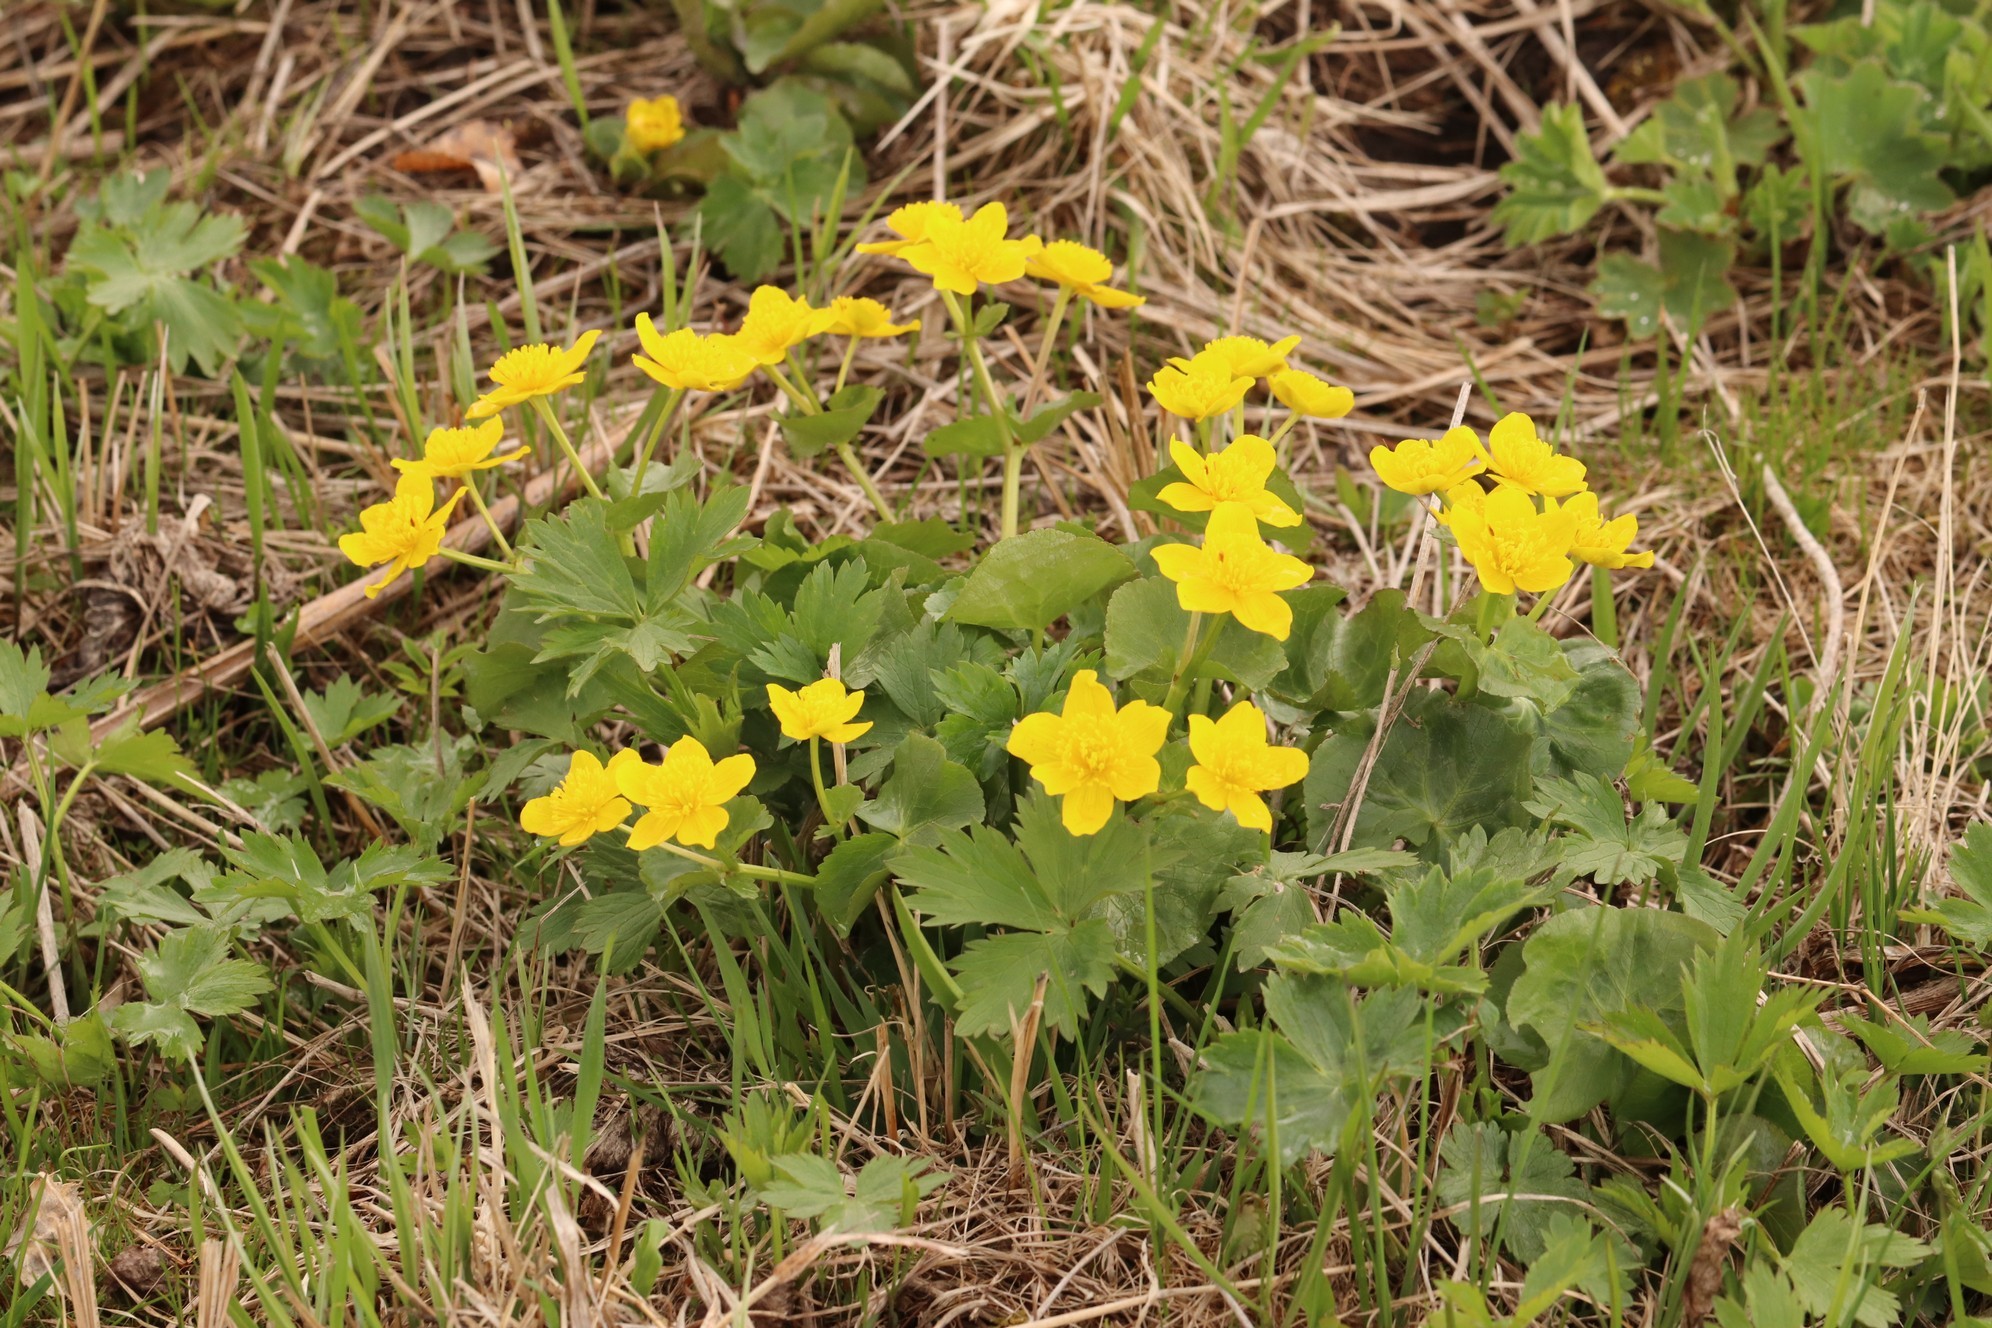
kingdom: Plantae
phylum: Tracheophyta
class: Magnoliopsida
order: Ranunculales
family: Ranunculaceae
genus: Caltha
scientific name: Caltha palustris
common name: Marsh marigold
